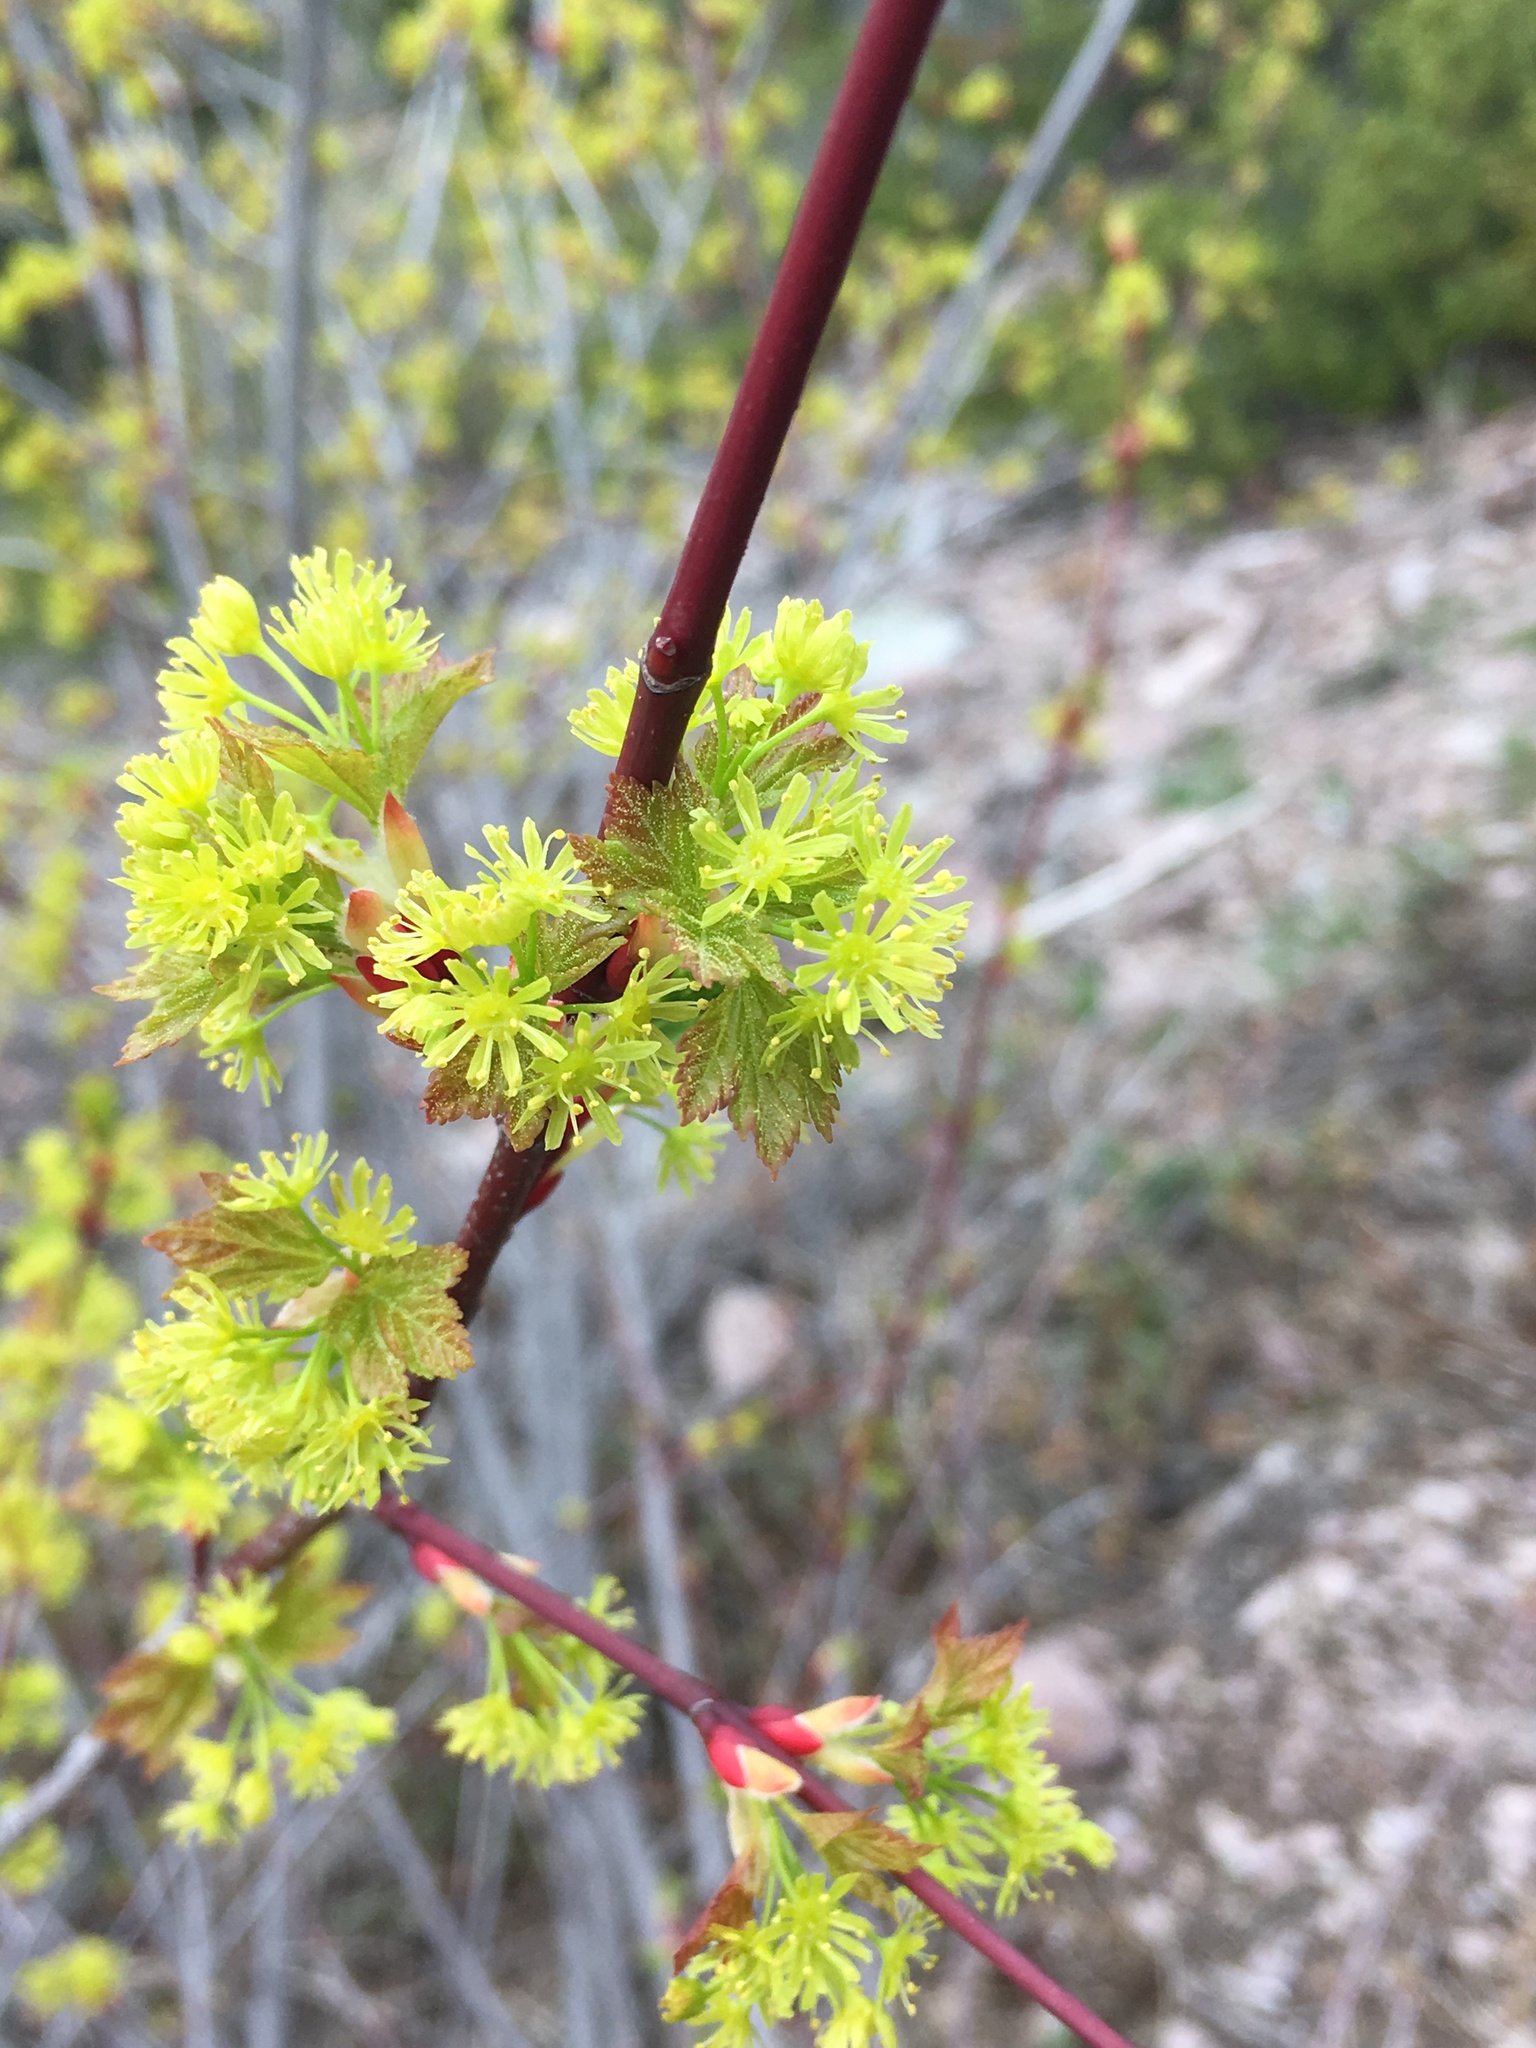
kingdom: Plantae
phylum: Tracheophyta
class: Magnoliopsida
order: Sapindales
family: Sapindaceae
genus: Acer
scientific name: Acer glabrum
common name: Rocky mountain maple
